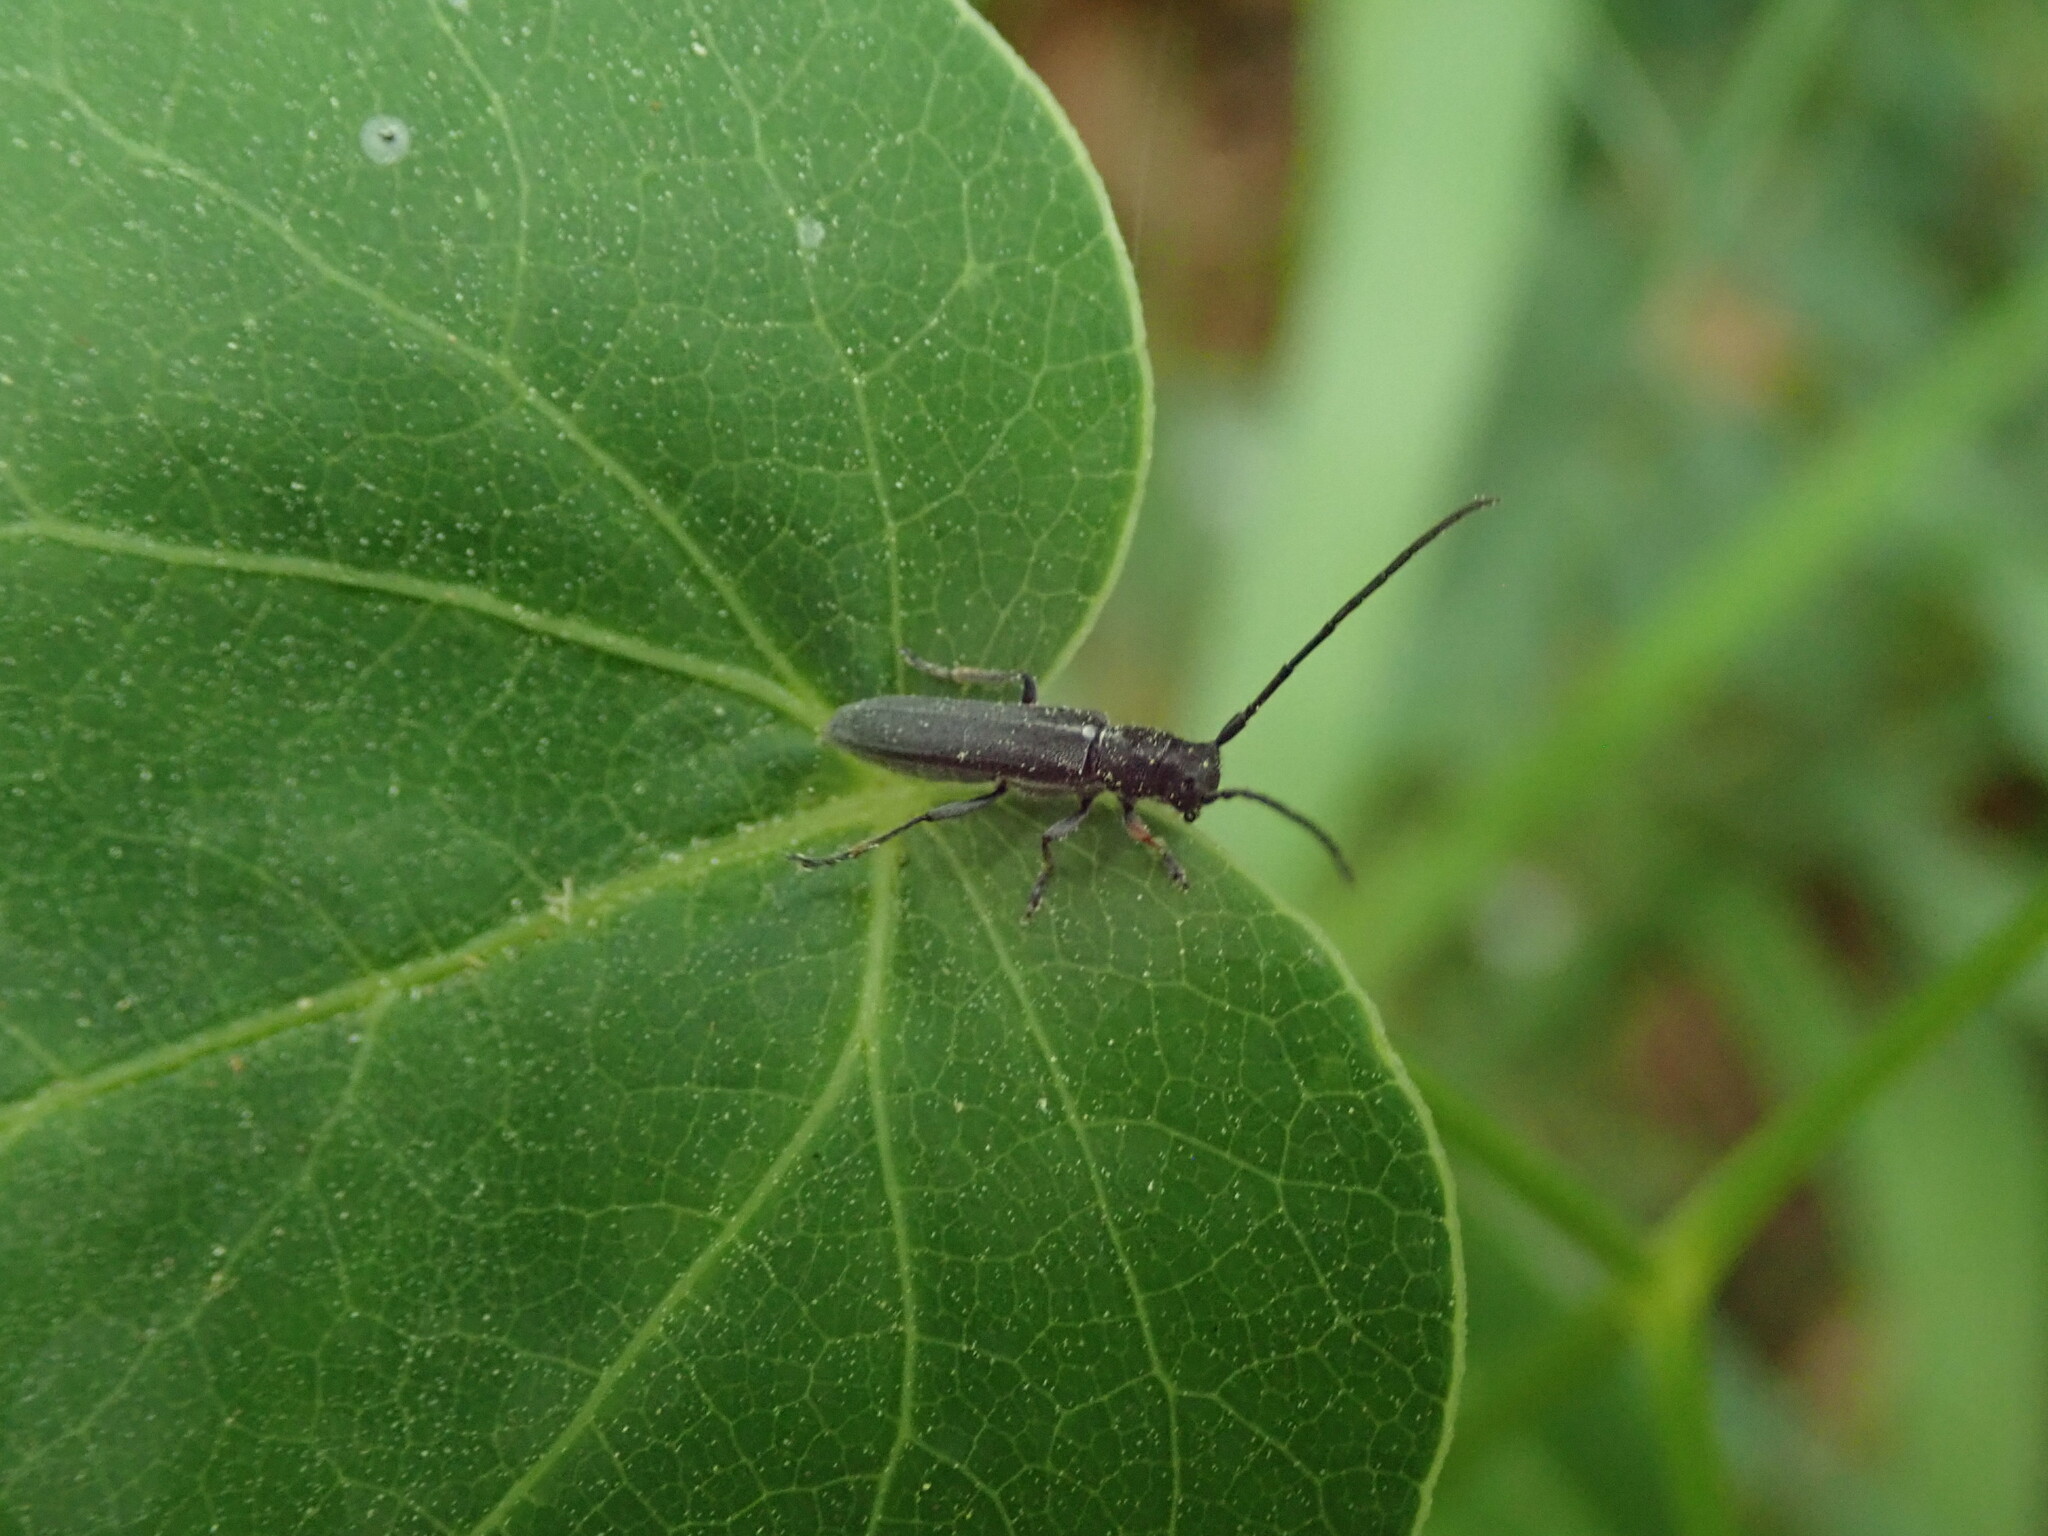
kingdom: Animalia
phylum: Arthropoda
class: Insecta
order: Coleoptera
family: Cerambycidae
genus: Phytoecia
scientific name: Phytoecia cylindrica
